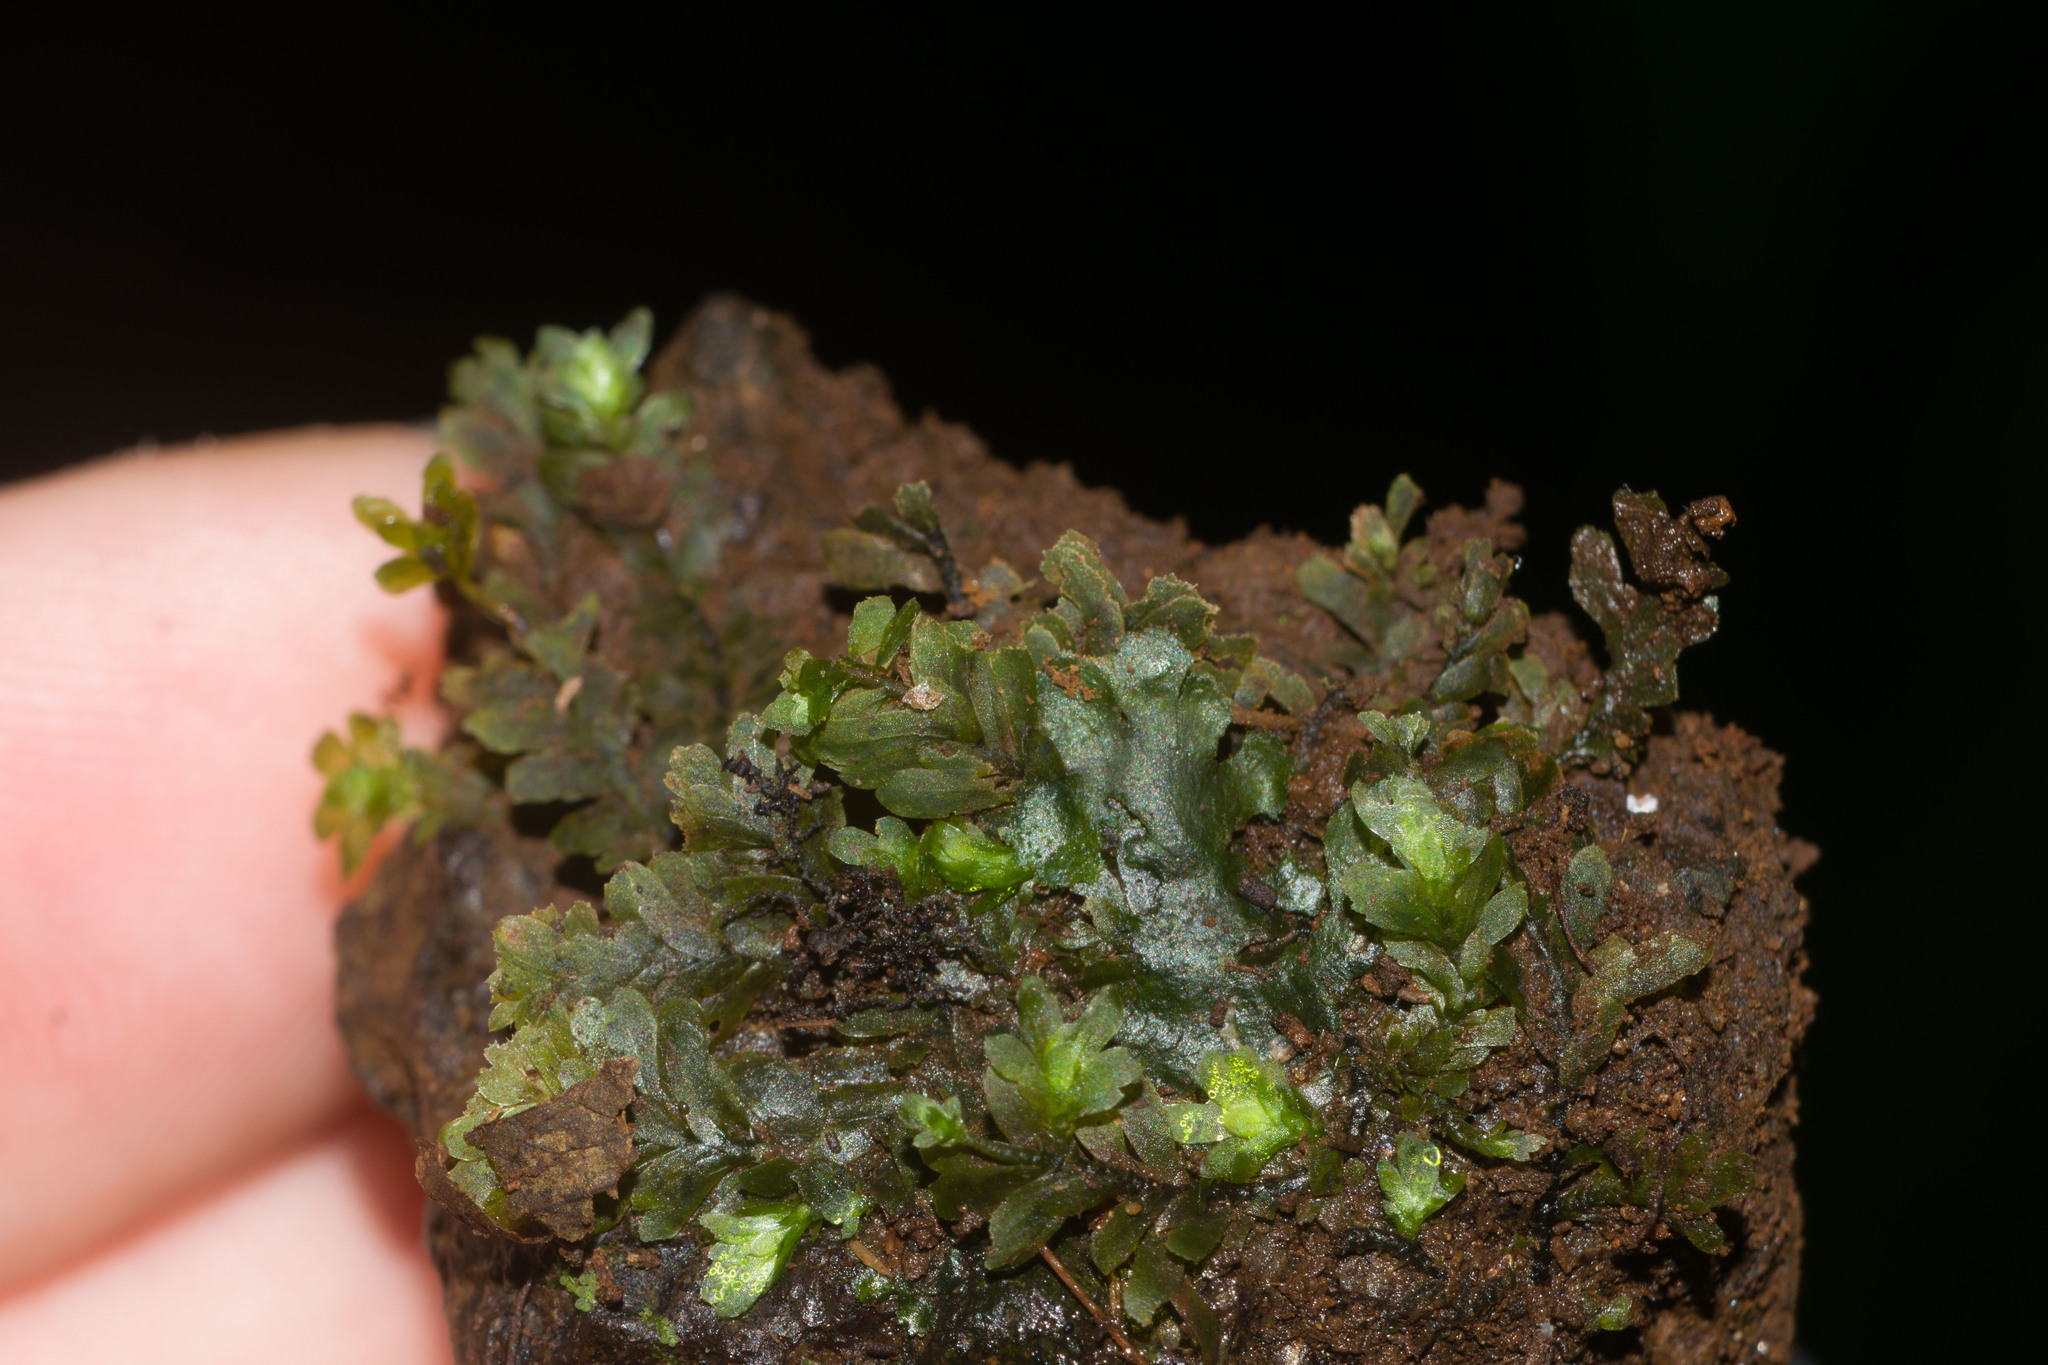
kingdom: Plantae
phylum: Bryophyta
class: Bryopsida
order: Hookeriales
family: Daltoniaceae
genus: Distichophyllum
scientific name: Distichophyllum freycinetii
